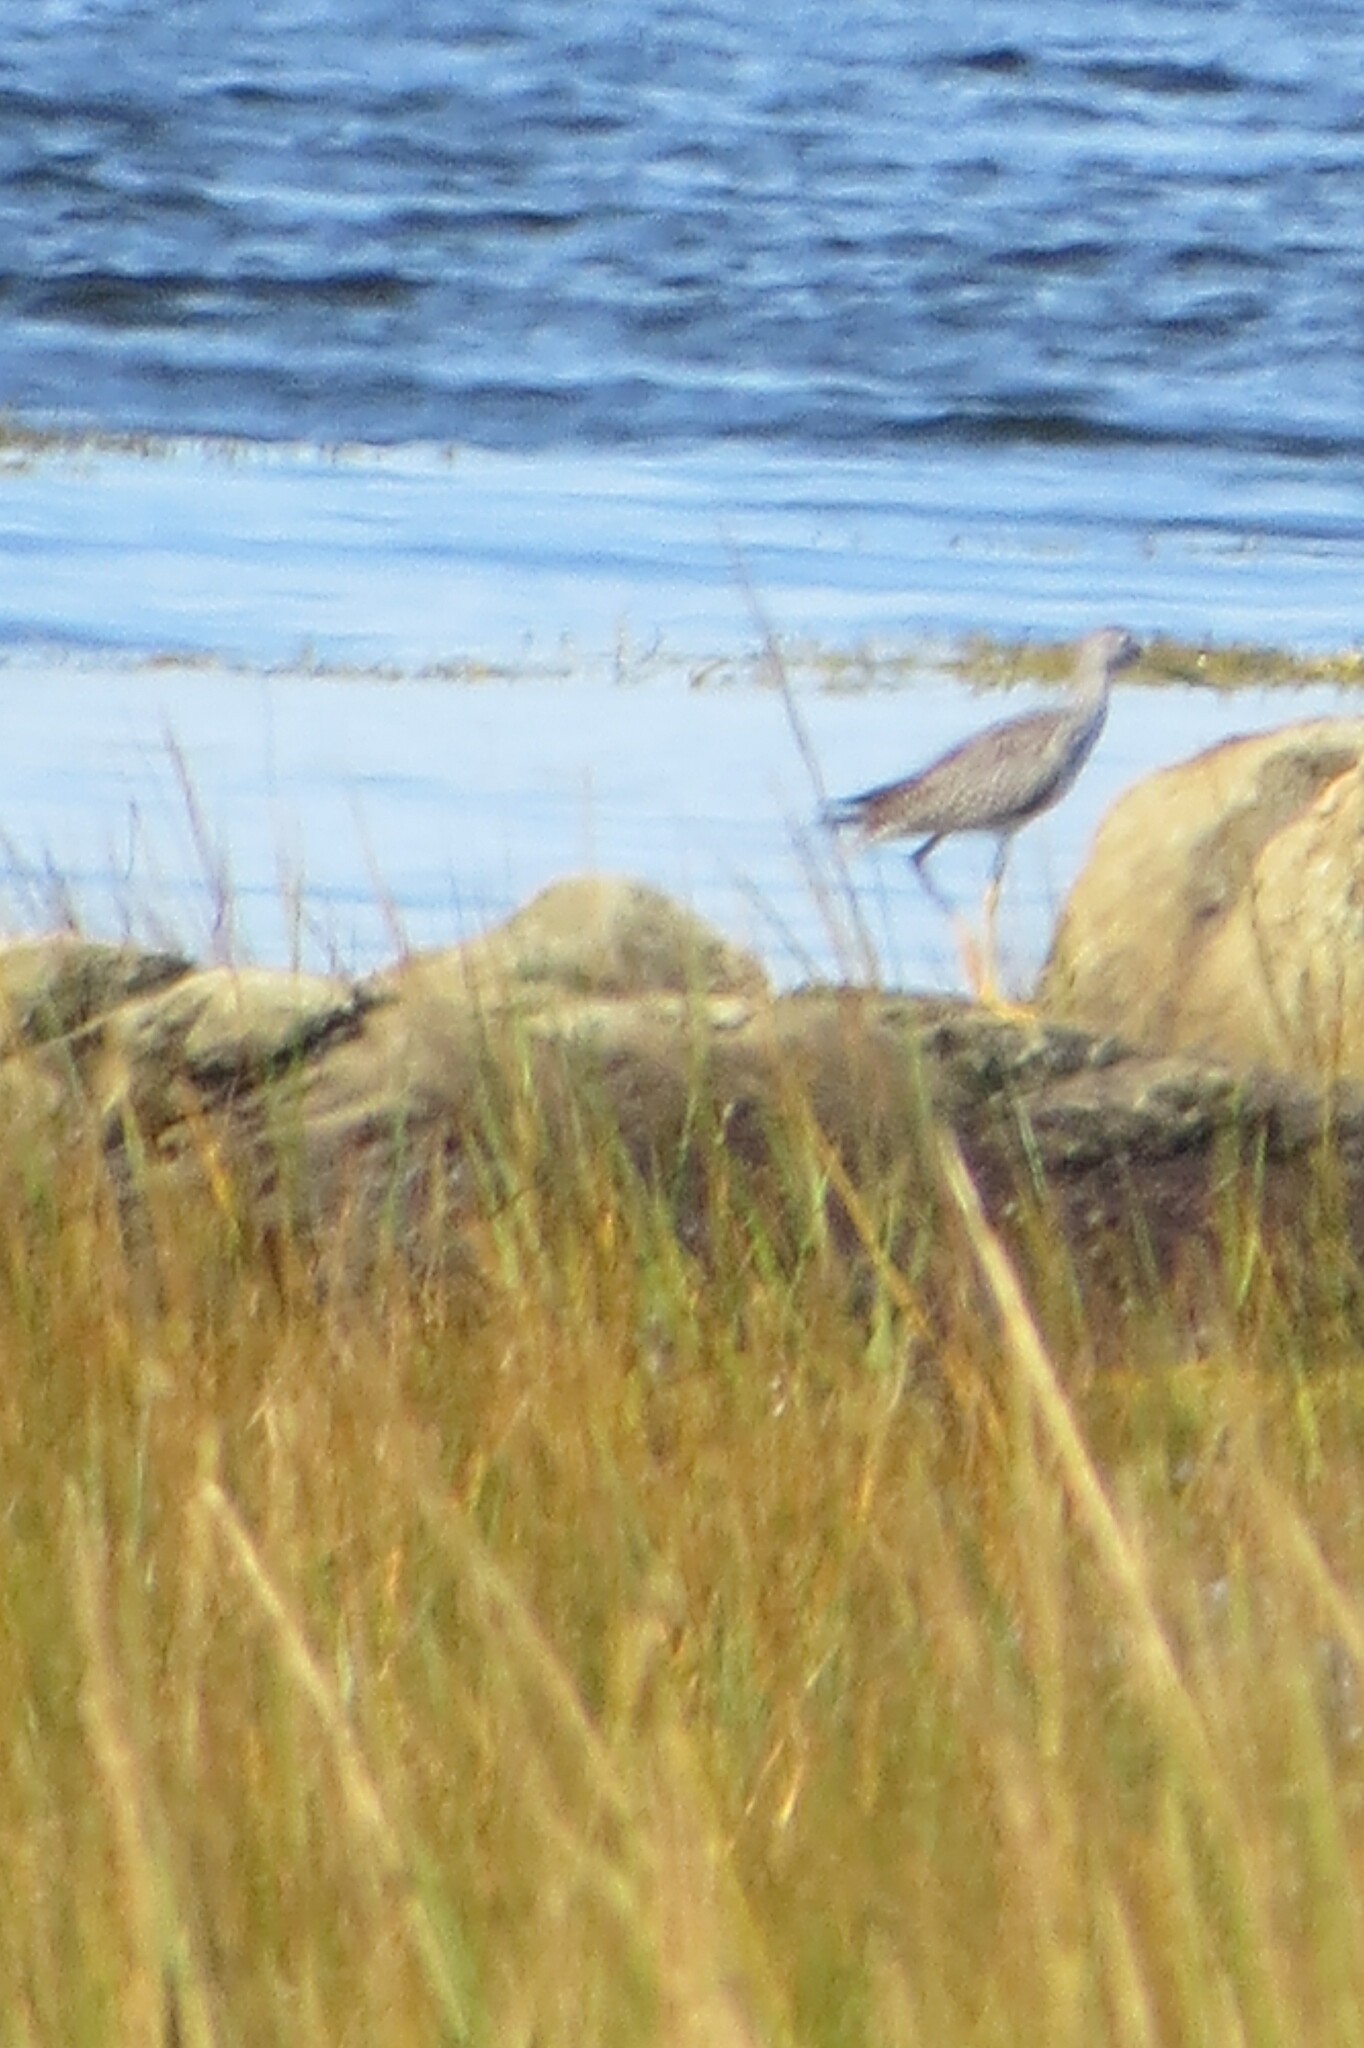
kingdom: Animalia
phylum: Chordata
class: Aves
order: Charadriiformes
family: Scolopacidae
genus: Tringa
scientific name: Tringa melanoleuca
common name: Greater yellowlegs
